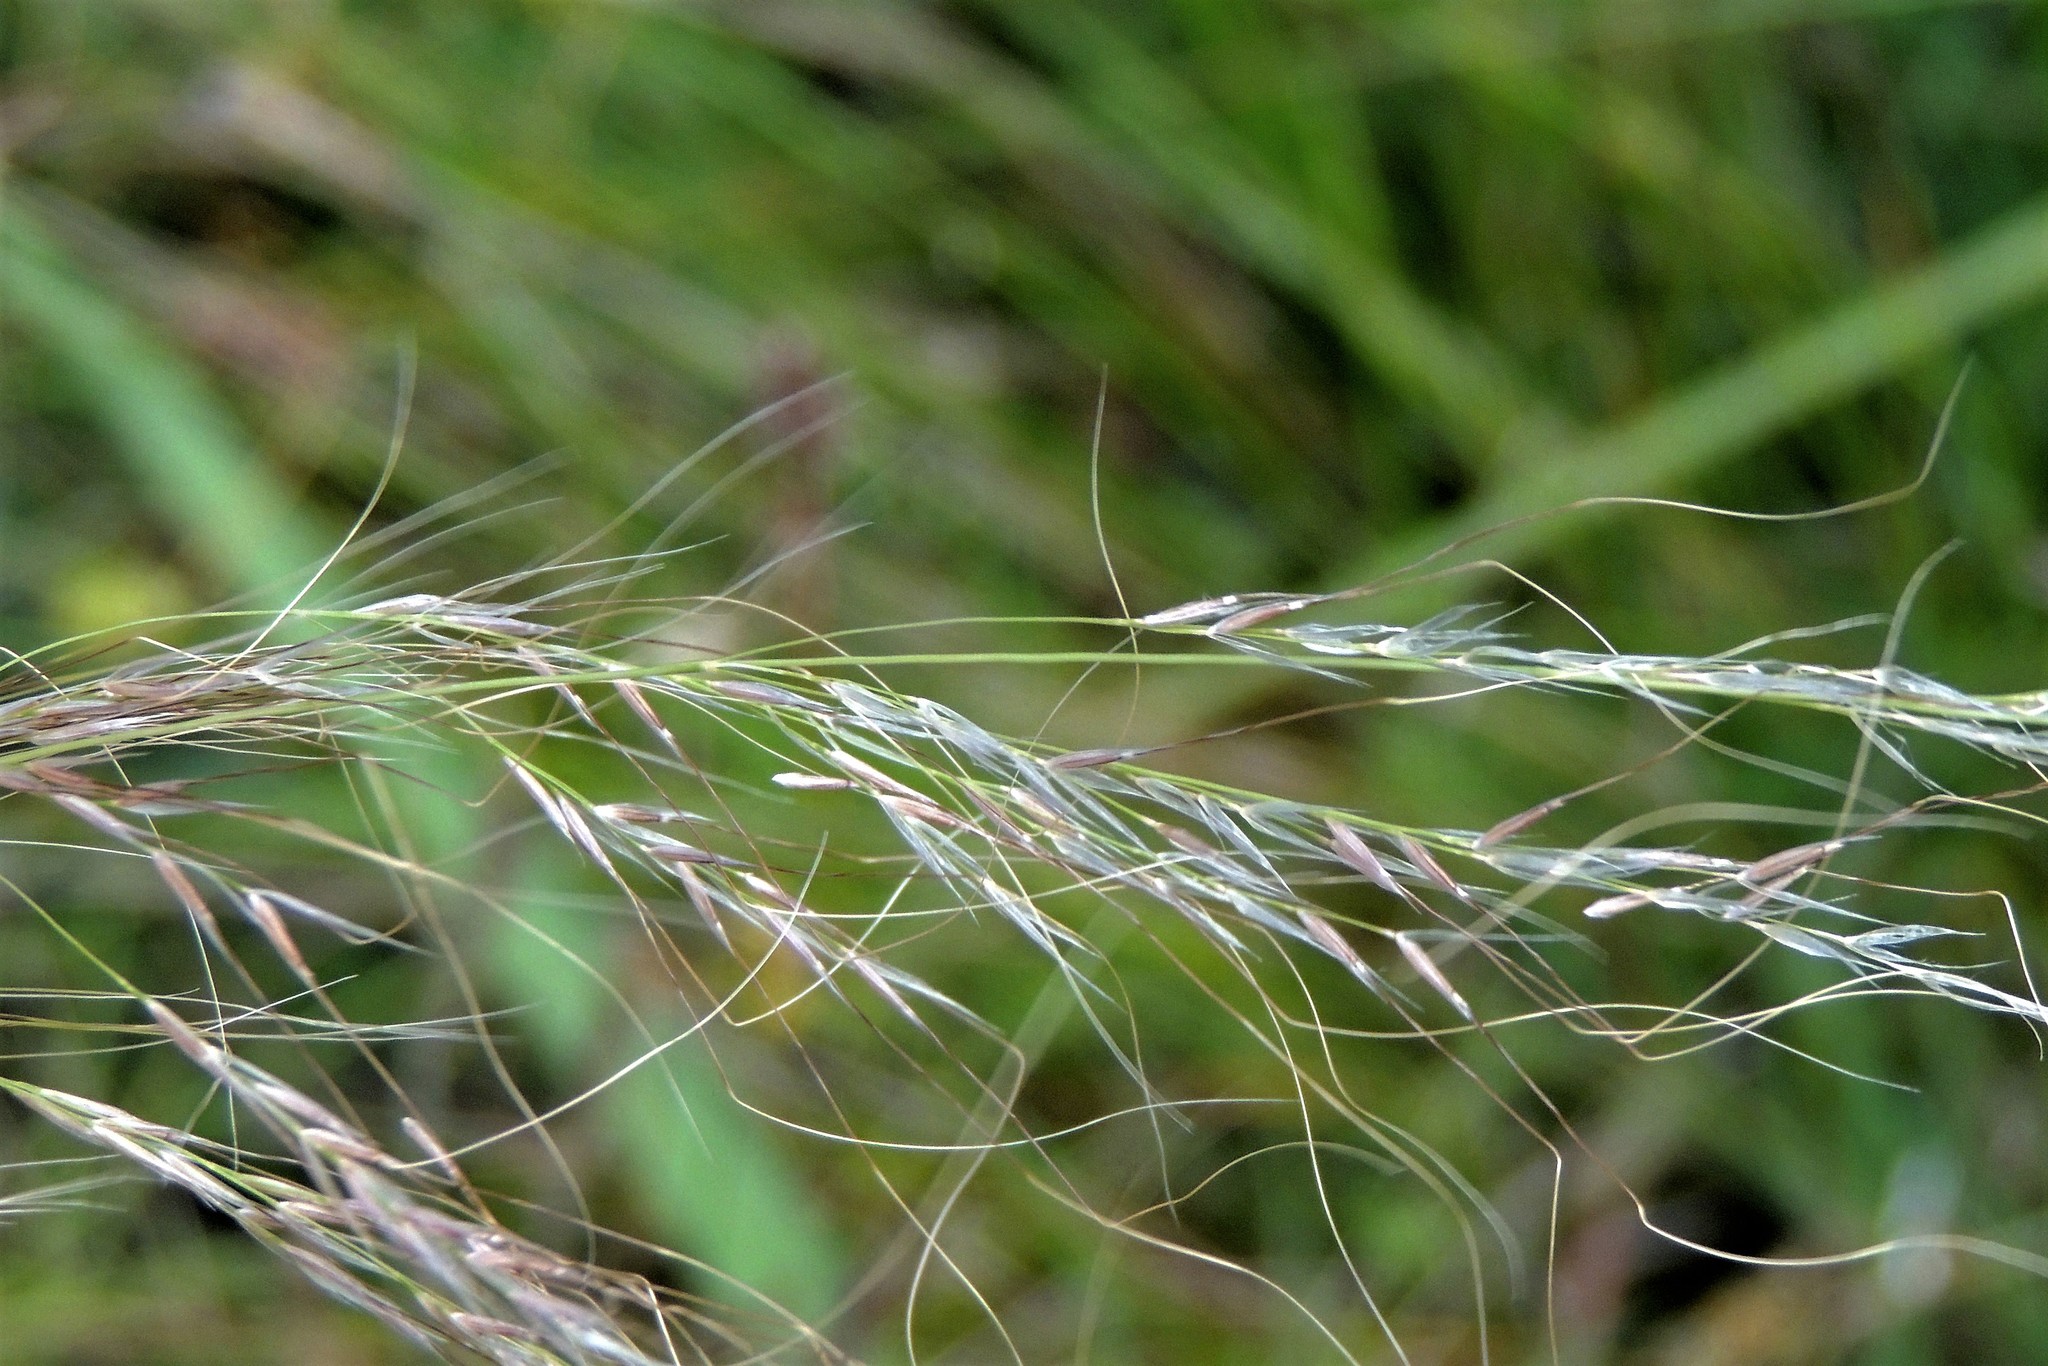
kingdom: Plantae
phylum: Tracheophyta
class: Liliopsida
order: Poales
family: Poaceae
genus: Nassella
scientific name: Nassella tenuissima
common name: Argentine needlegrass
